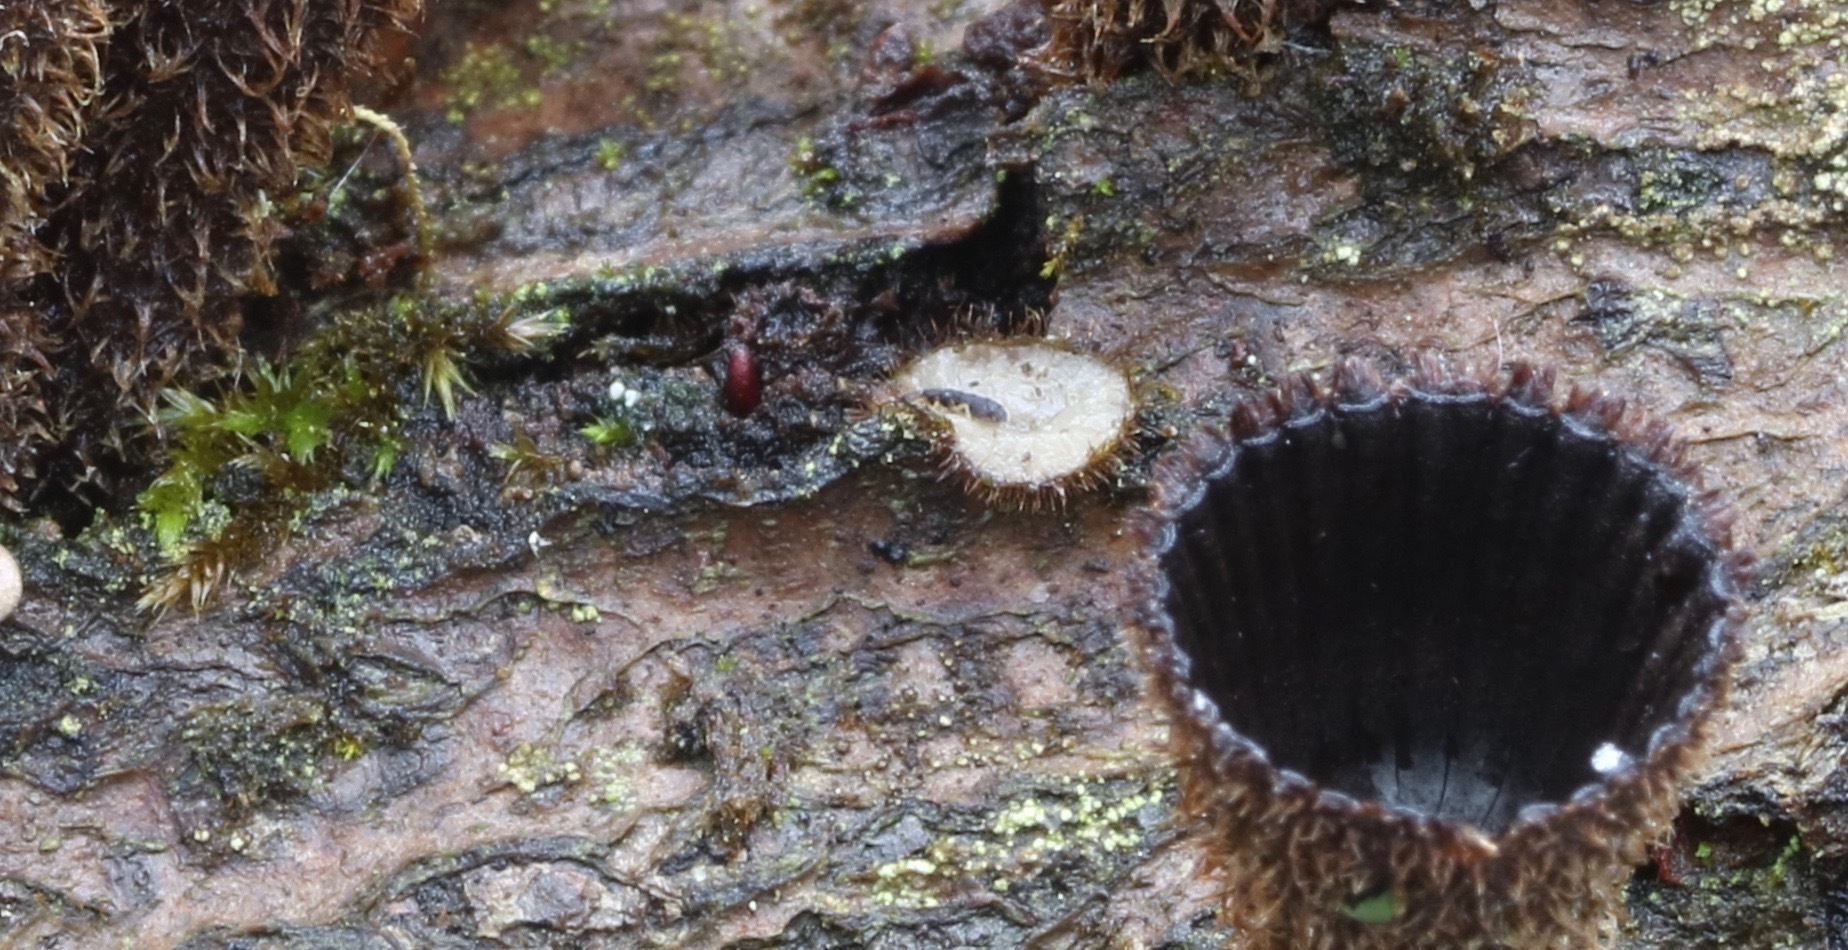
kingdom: Fungi
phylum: Basidiomycota
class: Agaricomycetes
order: Agaricales
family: Agaricaceae
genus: Cyathus
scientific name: Cyathus striatus
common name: Fluted bird's nest
